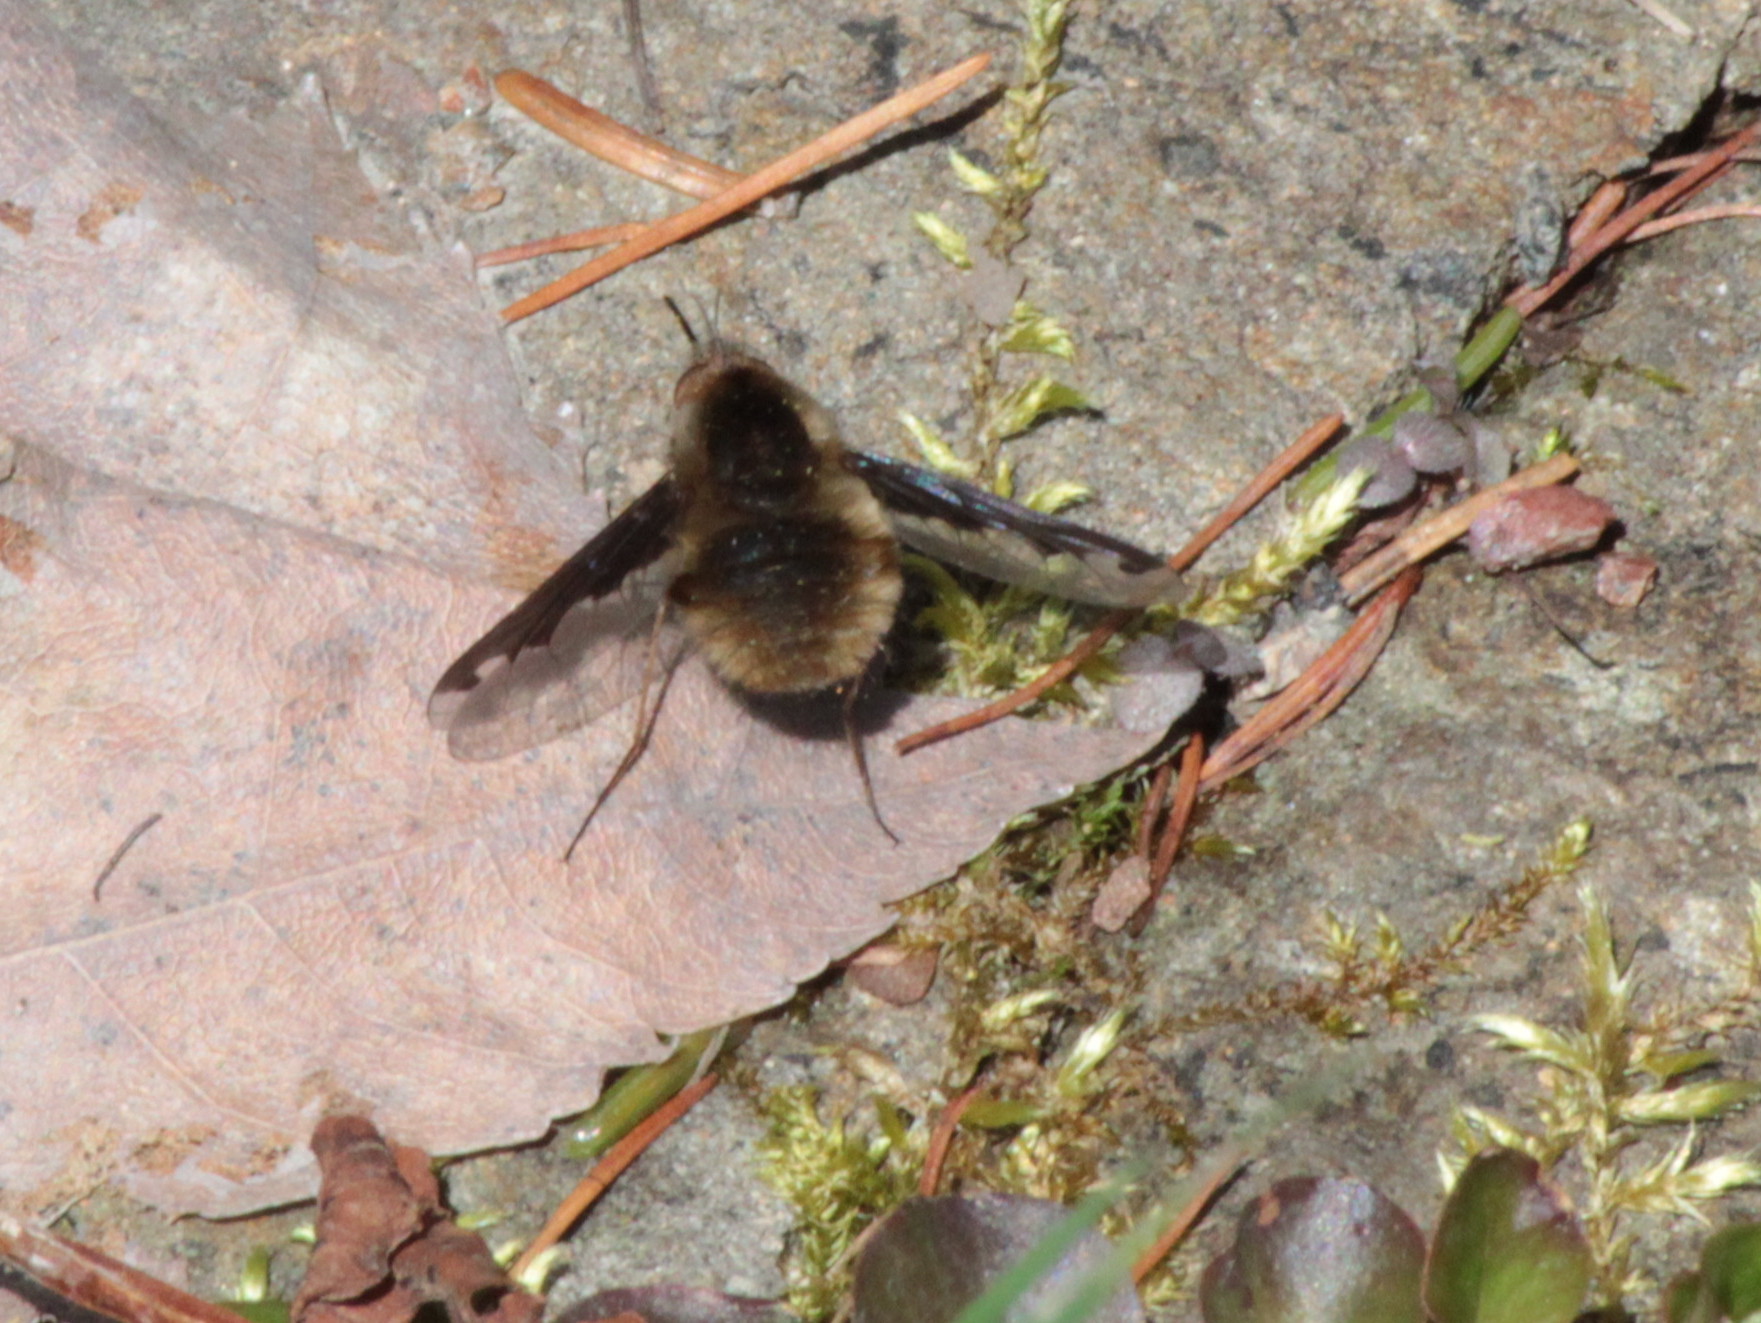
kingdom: Animalia
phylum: Arthropoda
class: Insecta
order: Diptera
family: Bombyliidae
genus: Bombylius
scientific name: Bombylius major
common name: Bee fly
